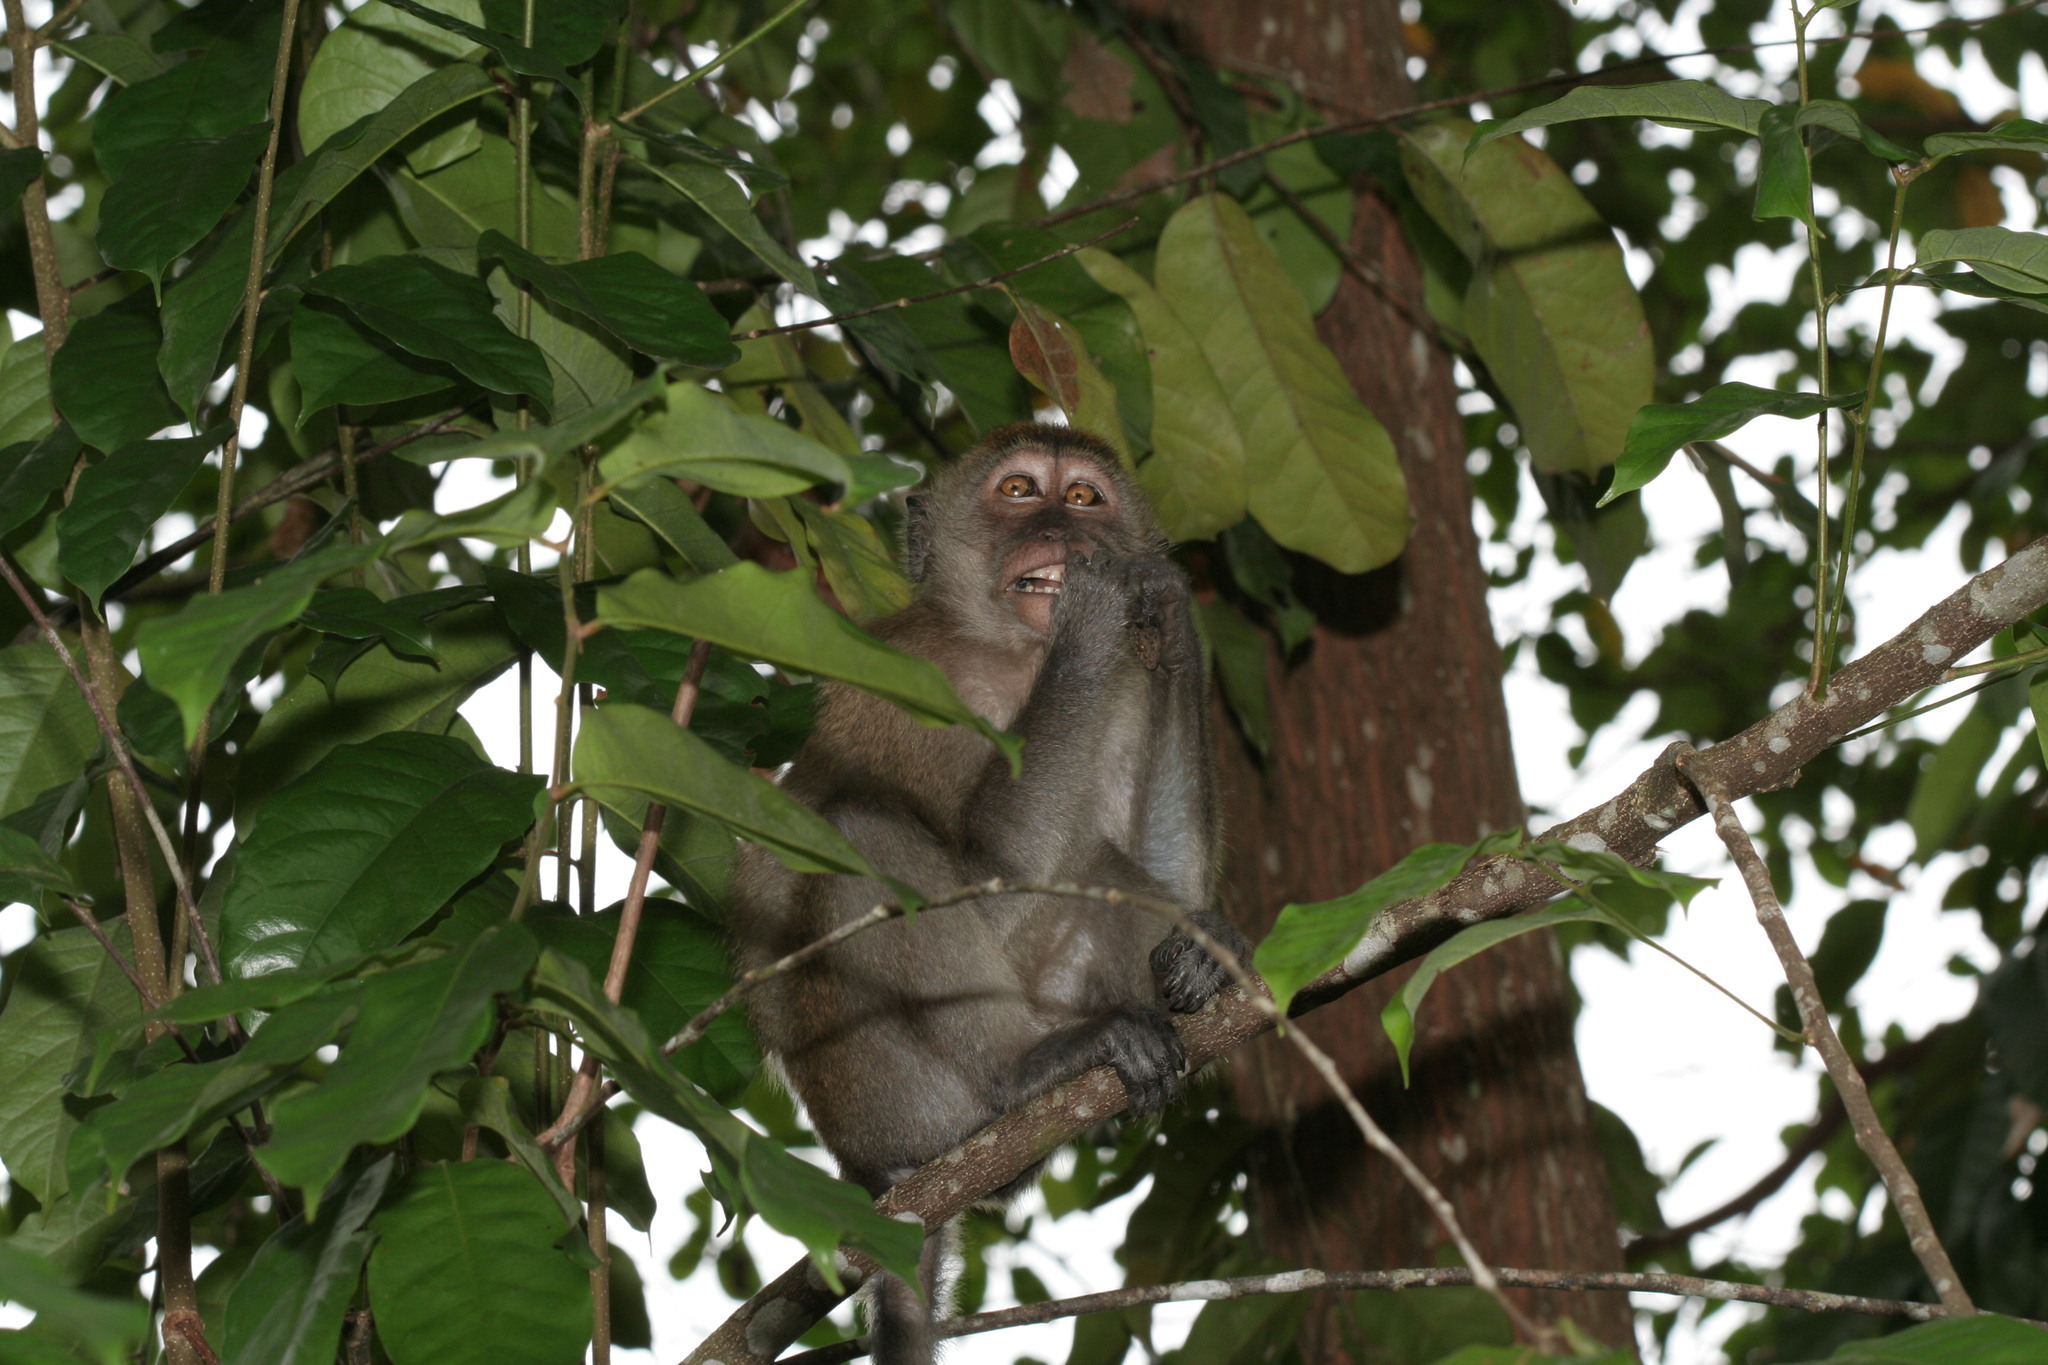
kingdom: Animalia
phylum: Chordata
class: Mammalia
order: Primates
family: Cercopithecidae
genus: Macaca
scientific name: Macaca fascicularis
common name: Crab-eating macaque
